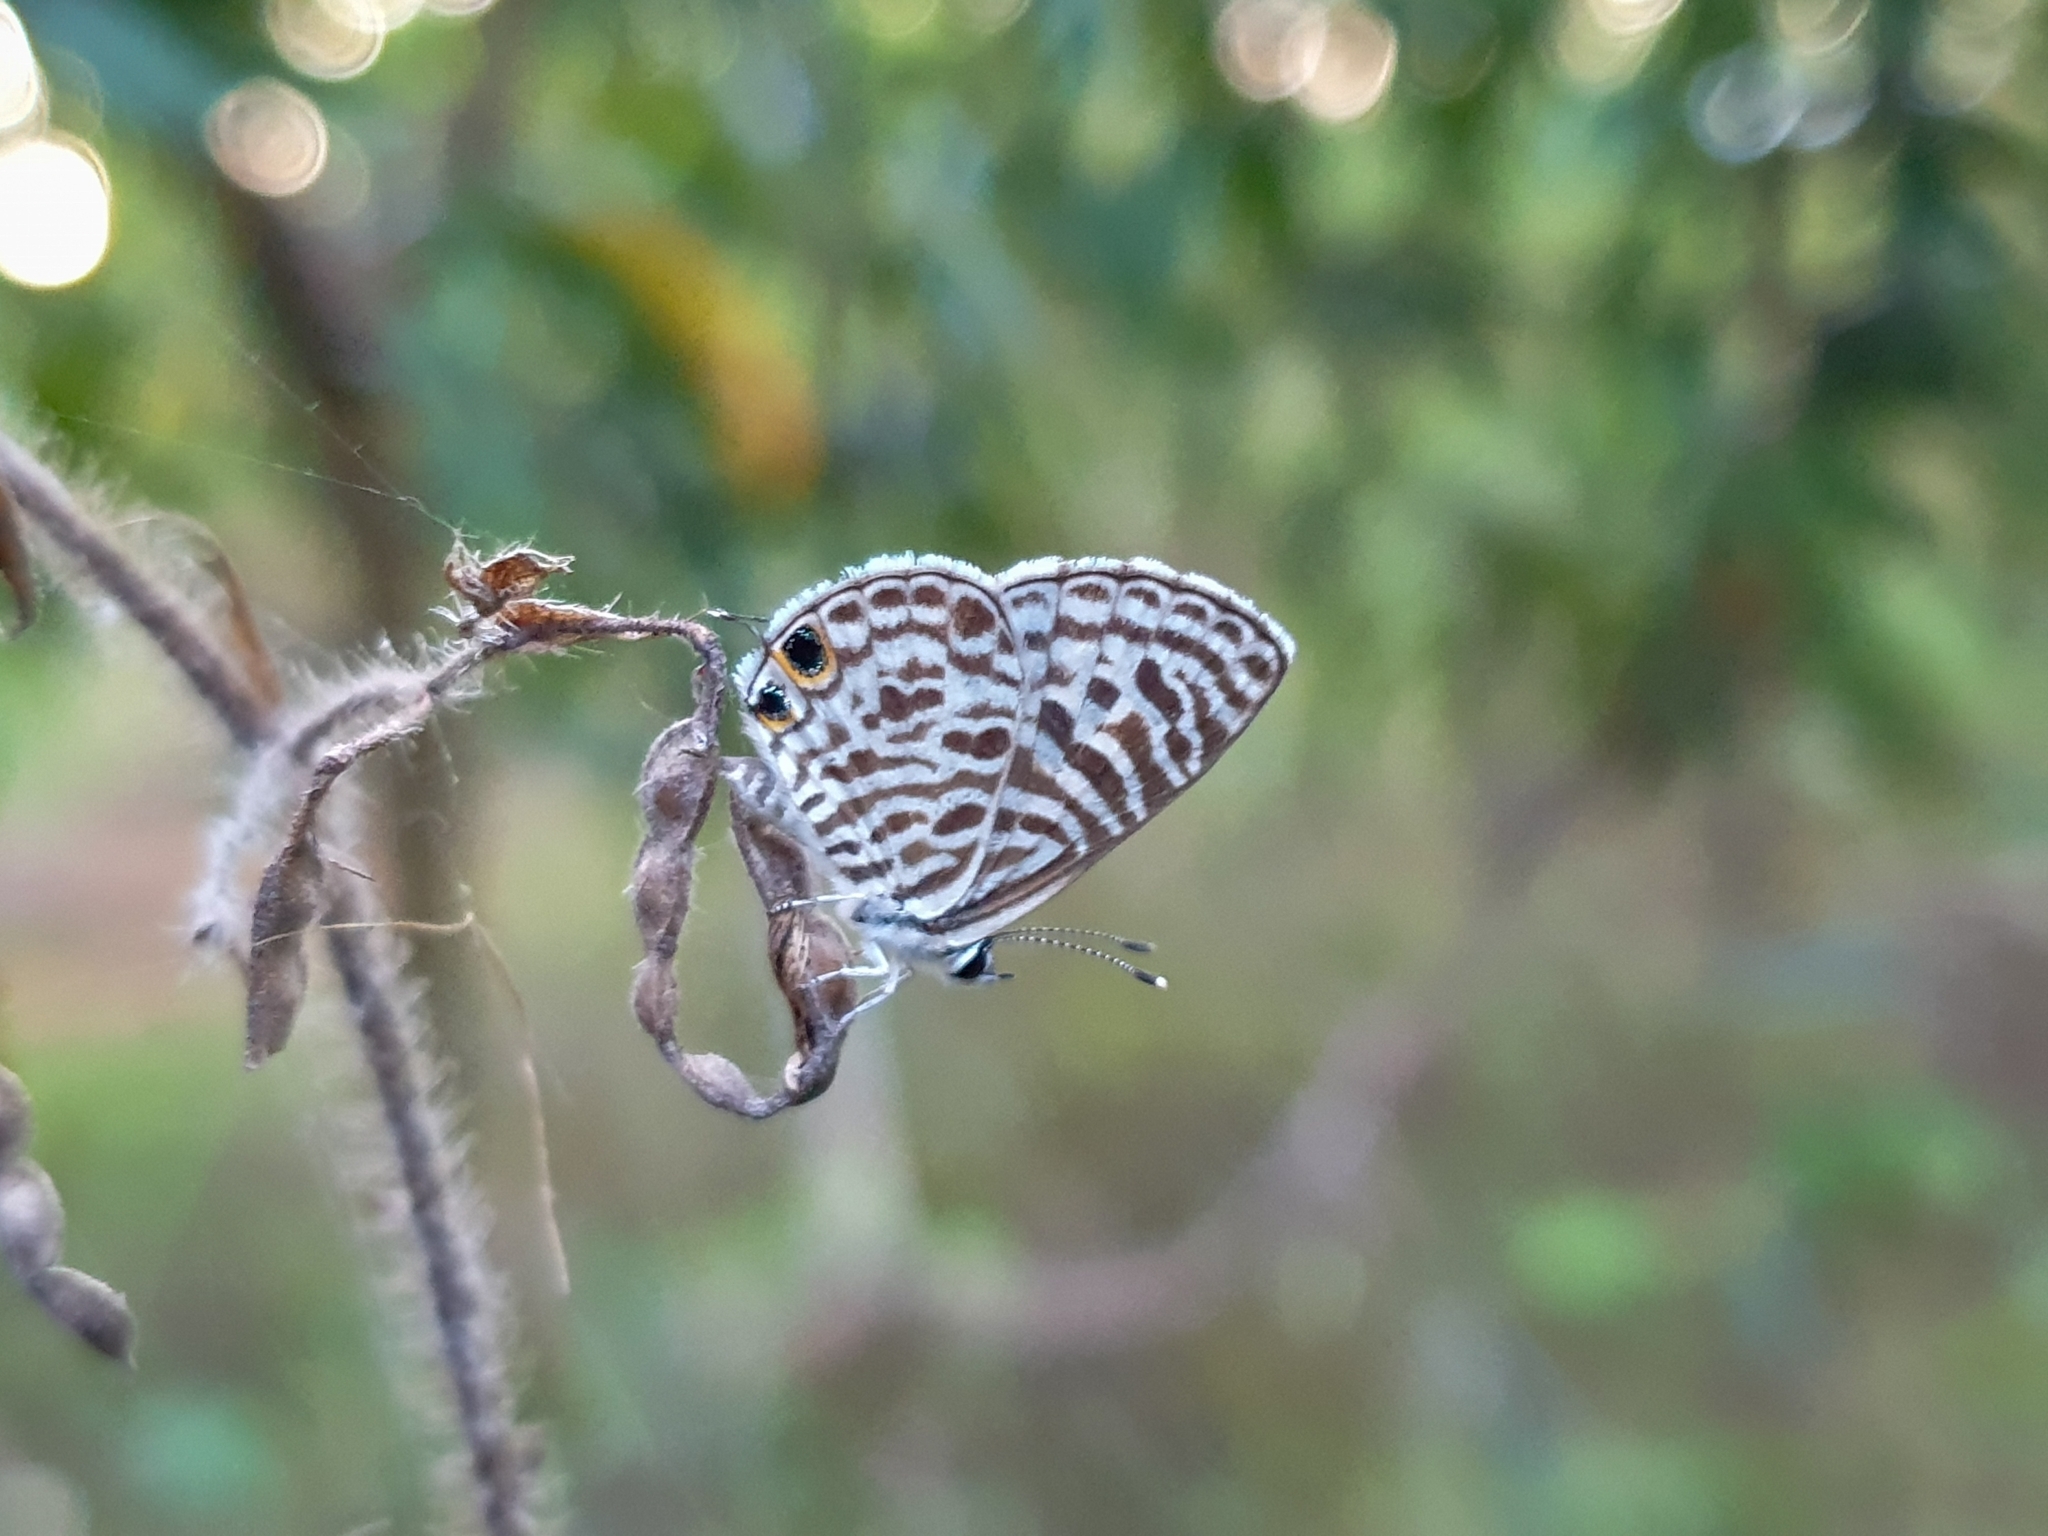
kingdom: Animalia
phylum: Arthropoda
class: Insecta
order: Lepidoptera
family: Lycaenidae
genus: Leptotes
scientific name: Leptotes plinius
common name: Zebra blue
